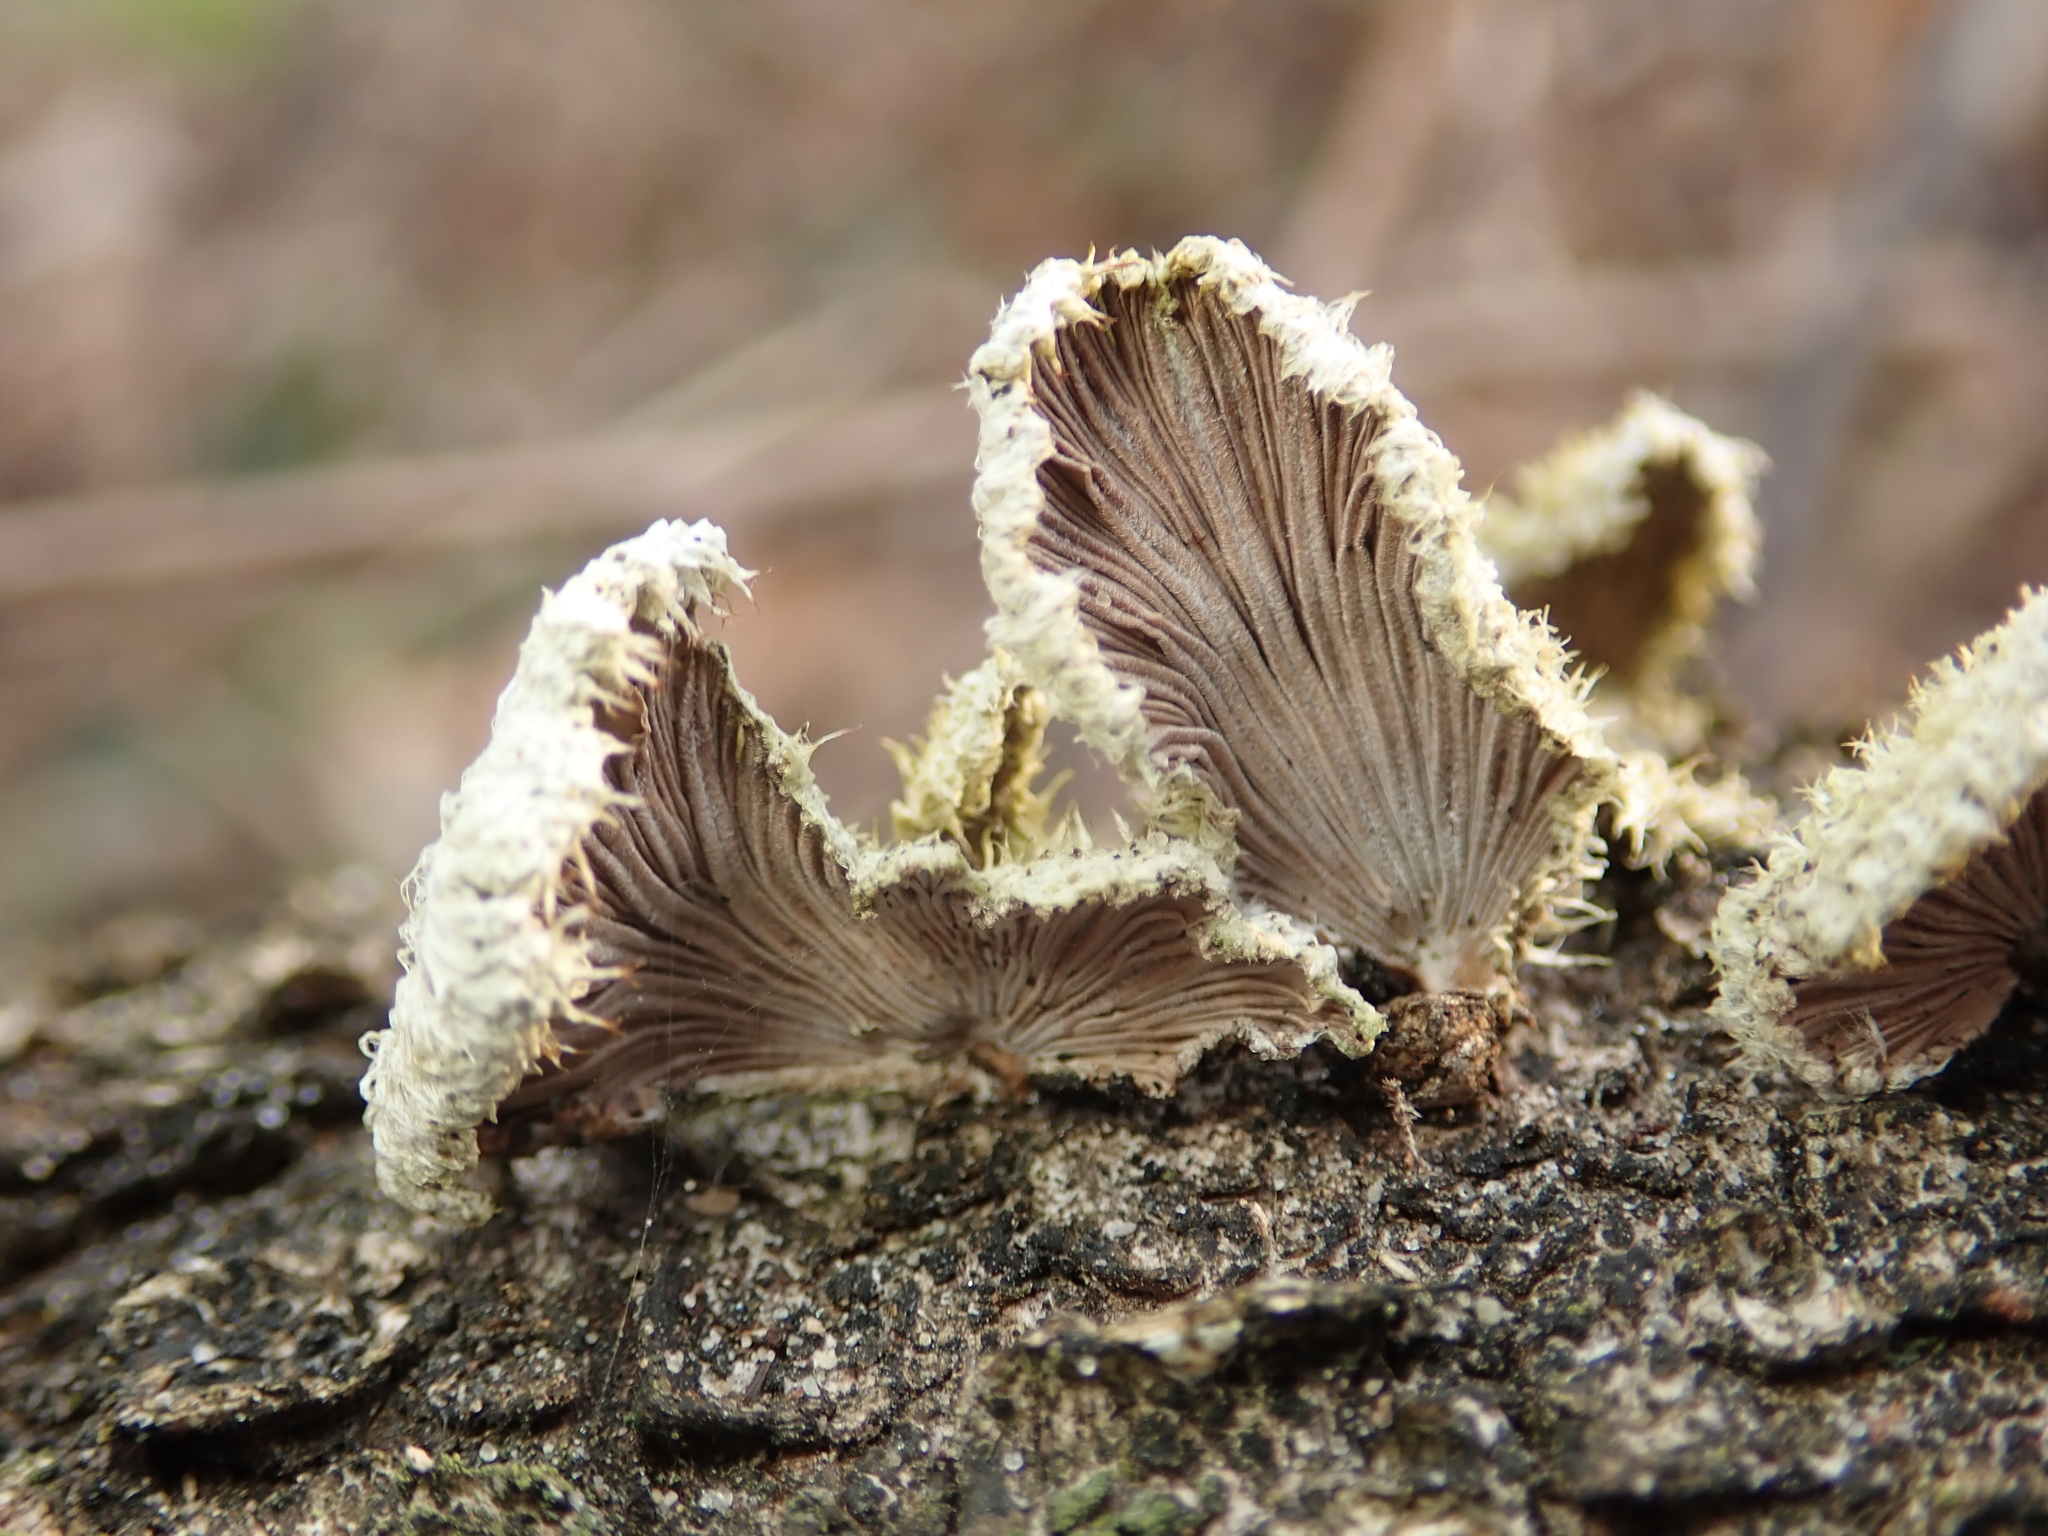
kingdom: Fungi
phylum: Basidiomycota
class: Agaricomycetes
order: Agaricales
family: Schizophyllaceae
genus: Schizophyllum
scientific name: Schizophyllum commune
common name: Common porecrust
